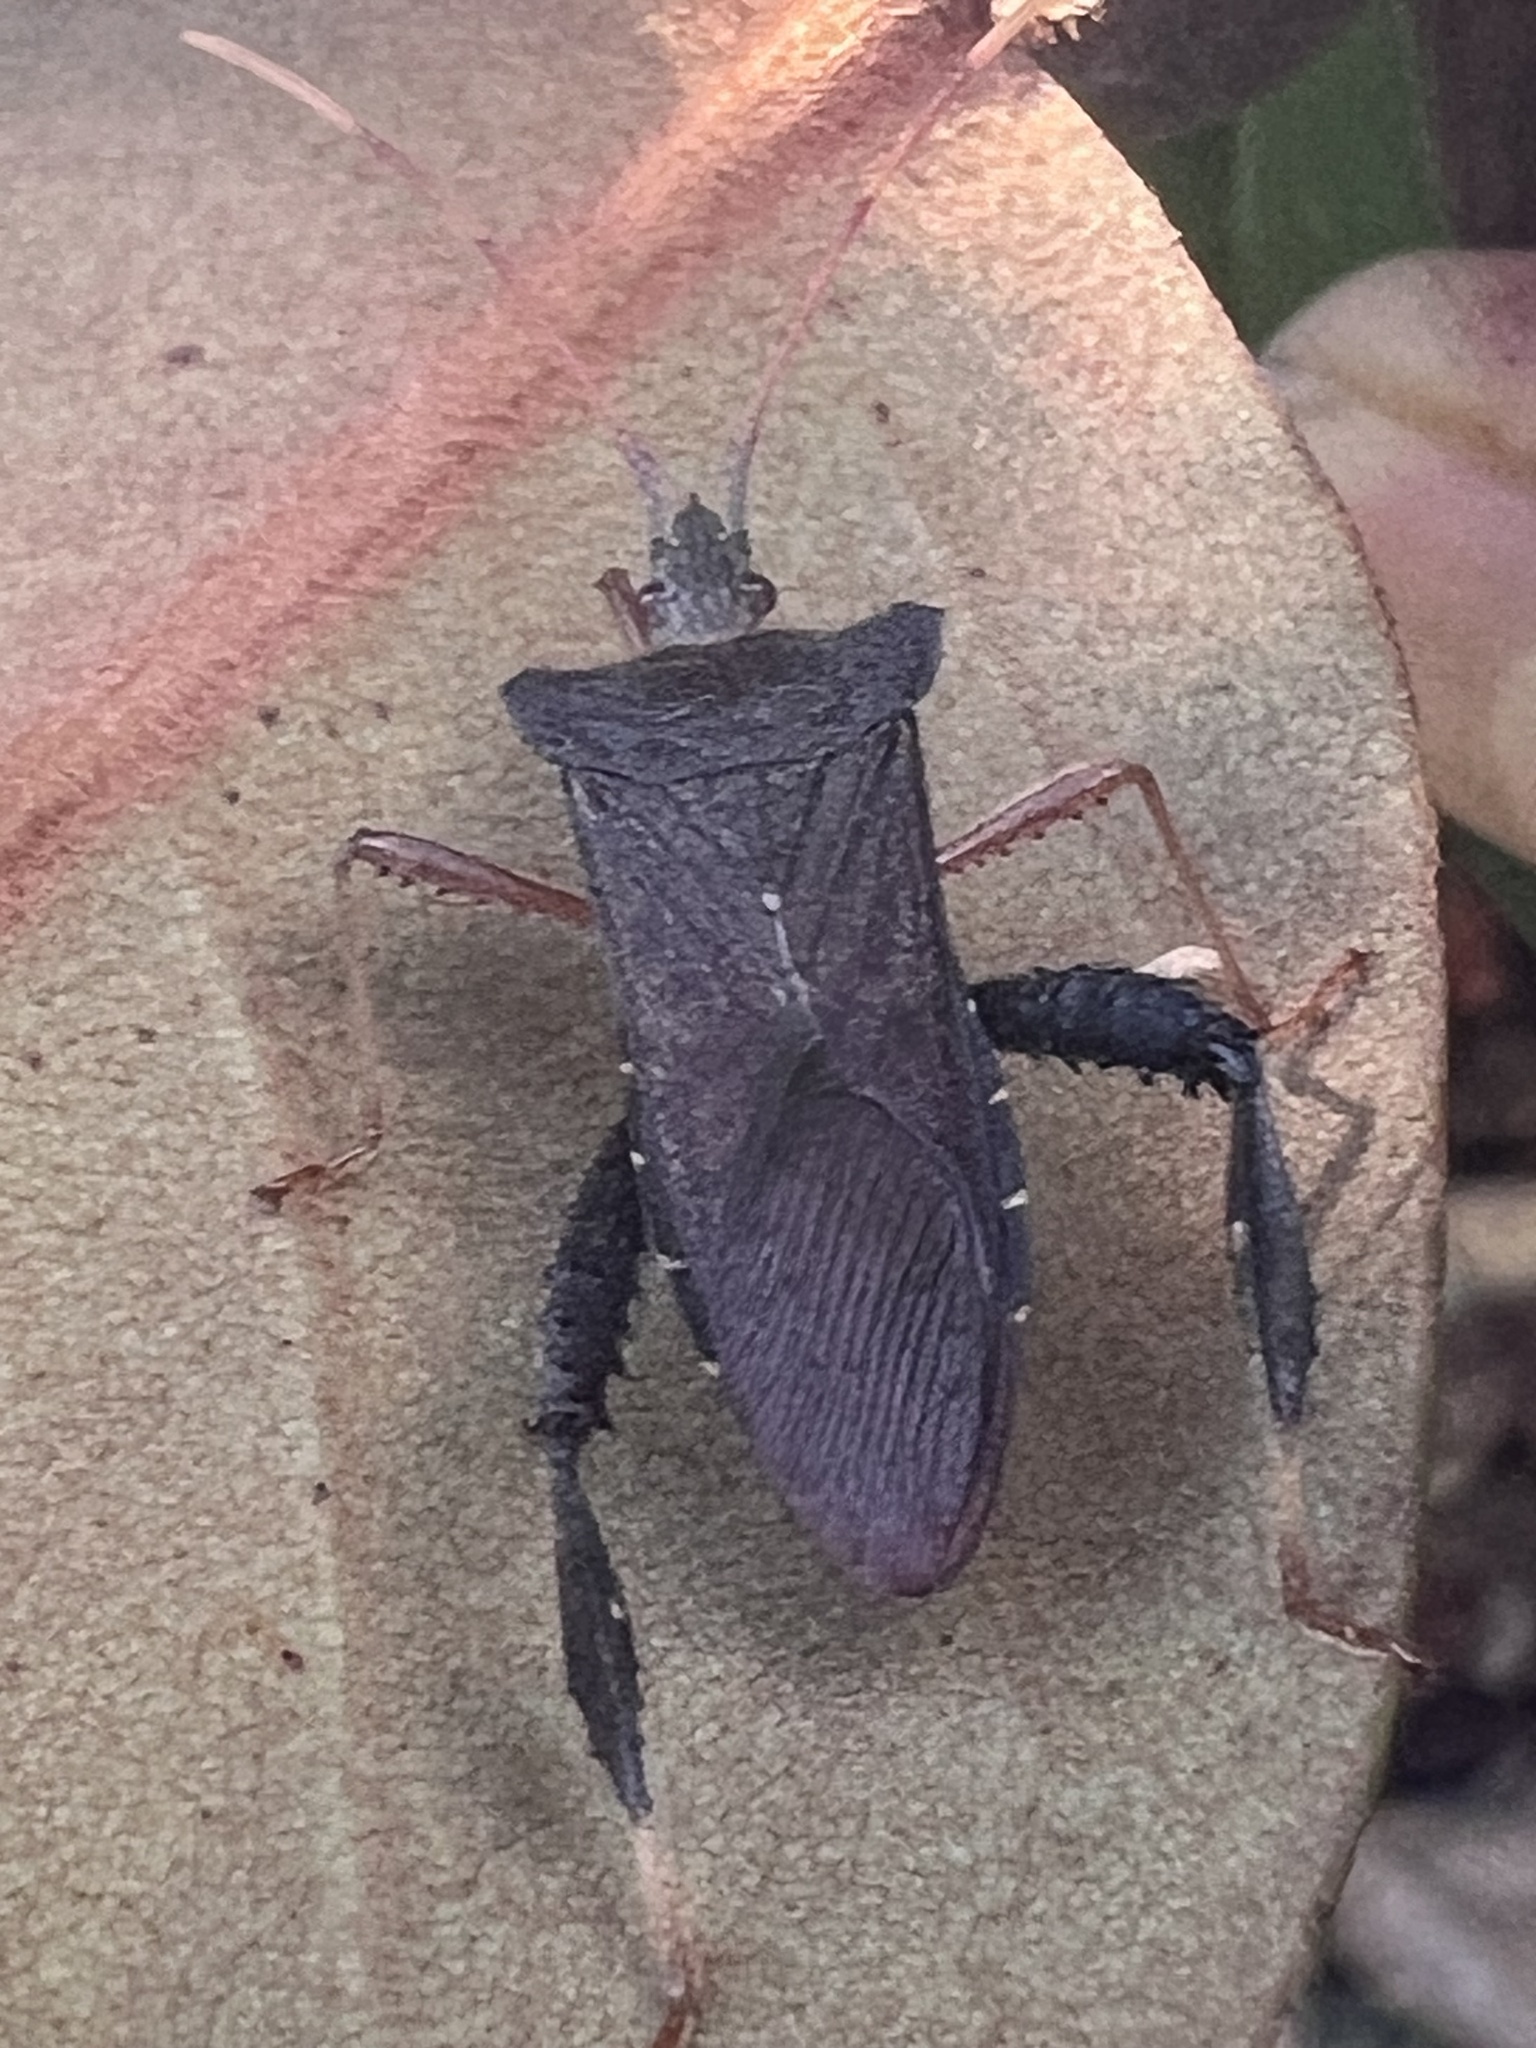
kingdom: Animalia
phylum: Arthropoda
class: Insecta
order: Hemiptera
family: Coreidae
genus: Leptoglossus
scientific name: Leptoglossus fulvicornis
